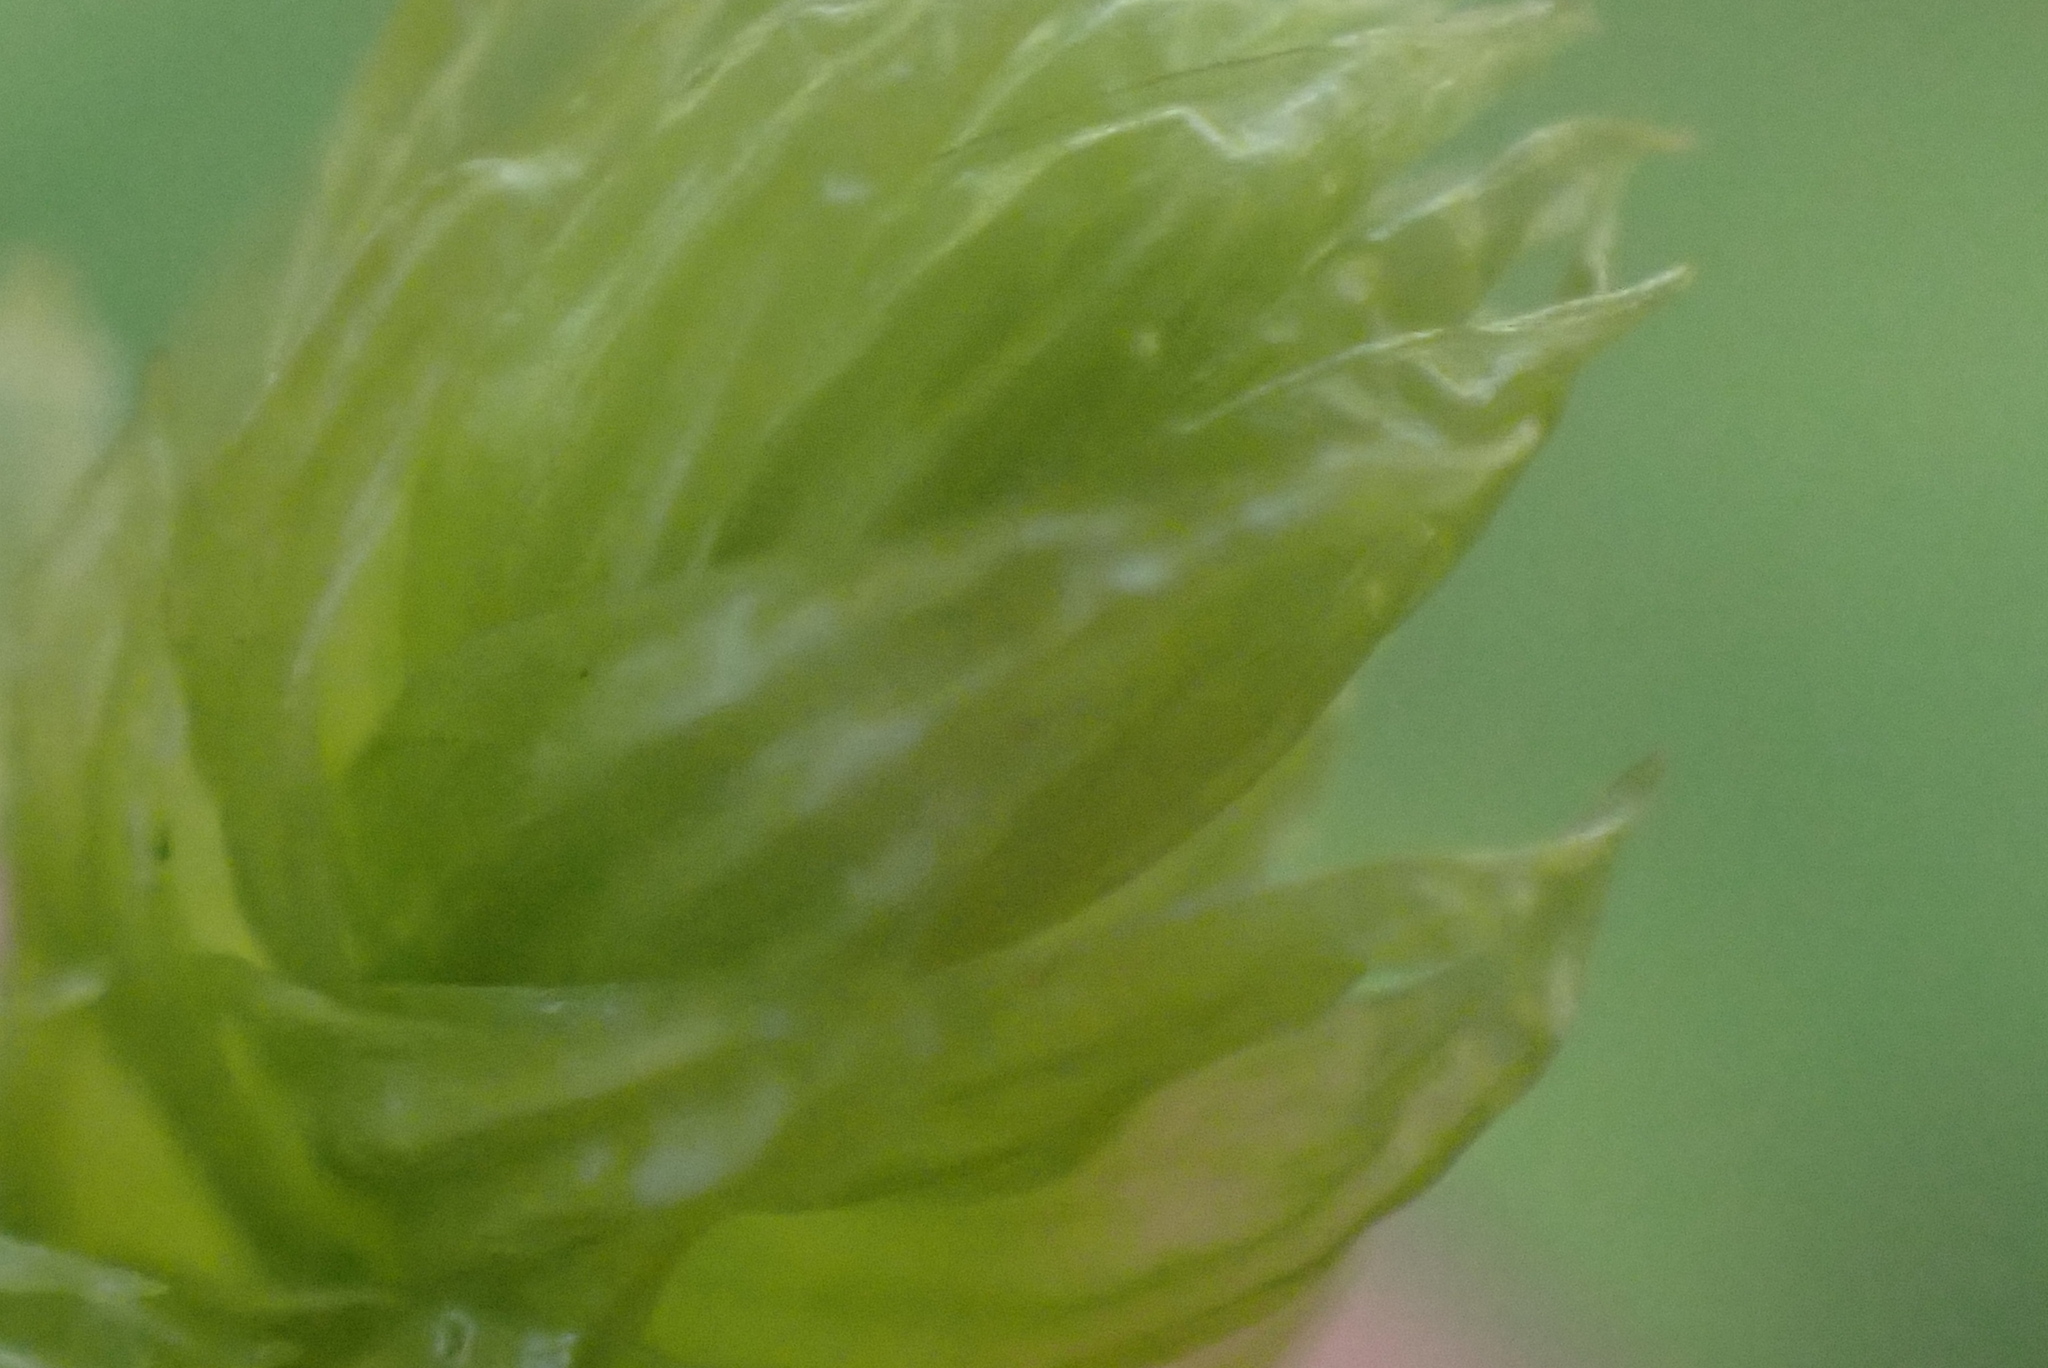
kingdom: Plantae
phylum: Bryophyta
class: Bryopsida
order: Hypnales
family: Hylocomiaceae
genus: Rhytidiopsis
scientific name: Rhytidiopsis robusta
